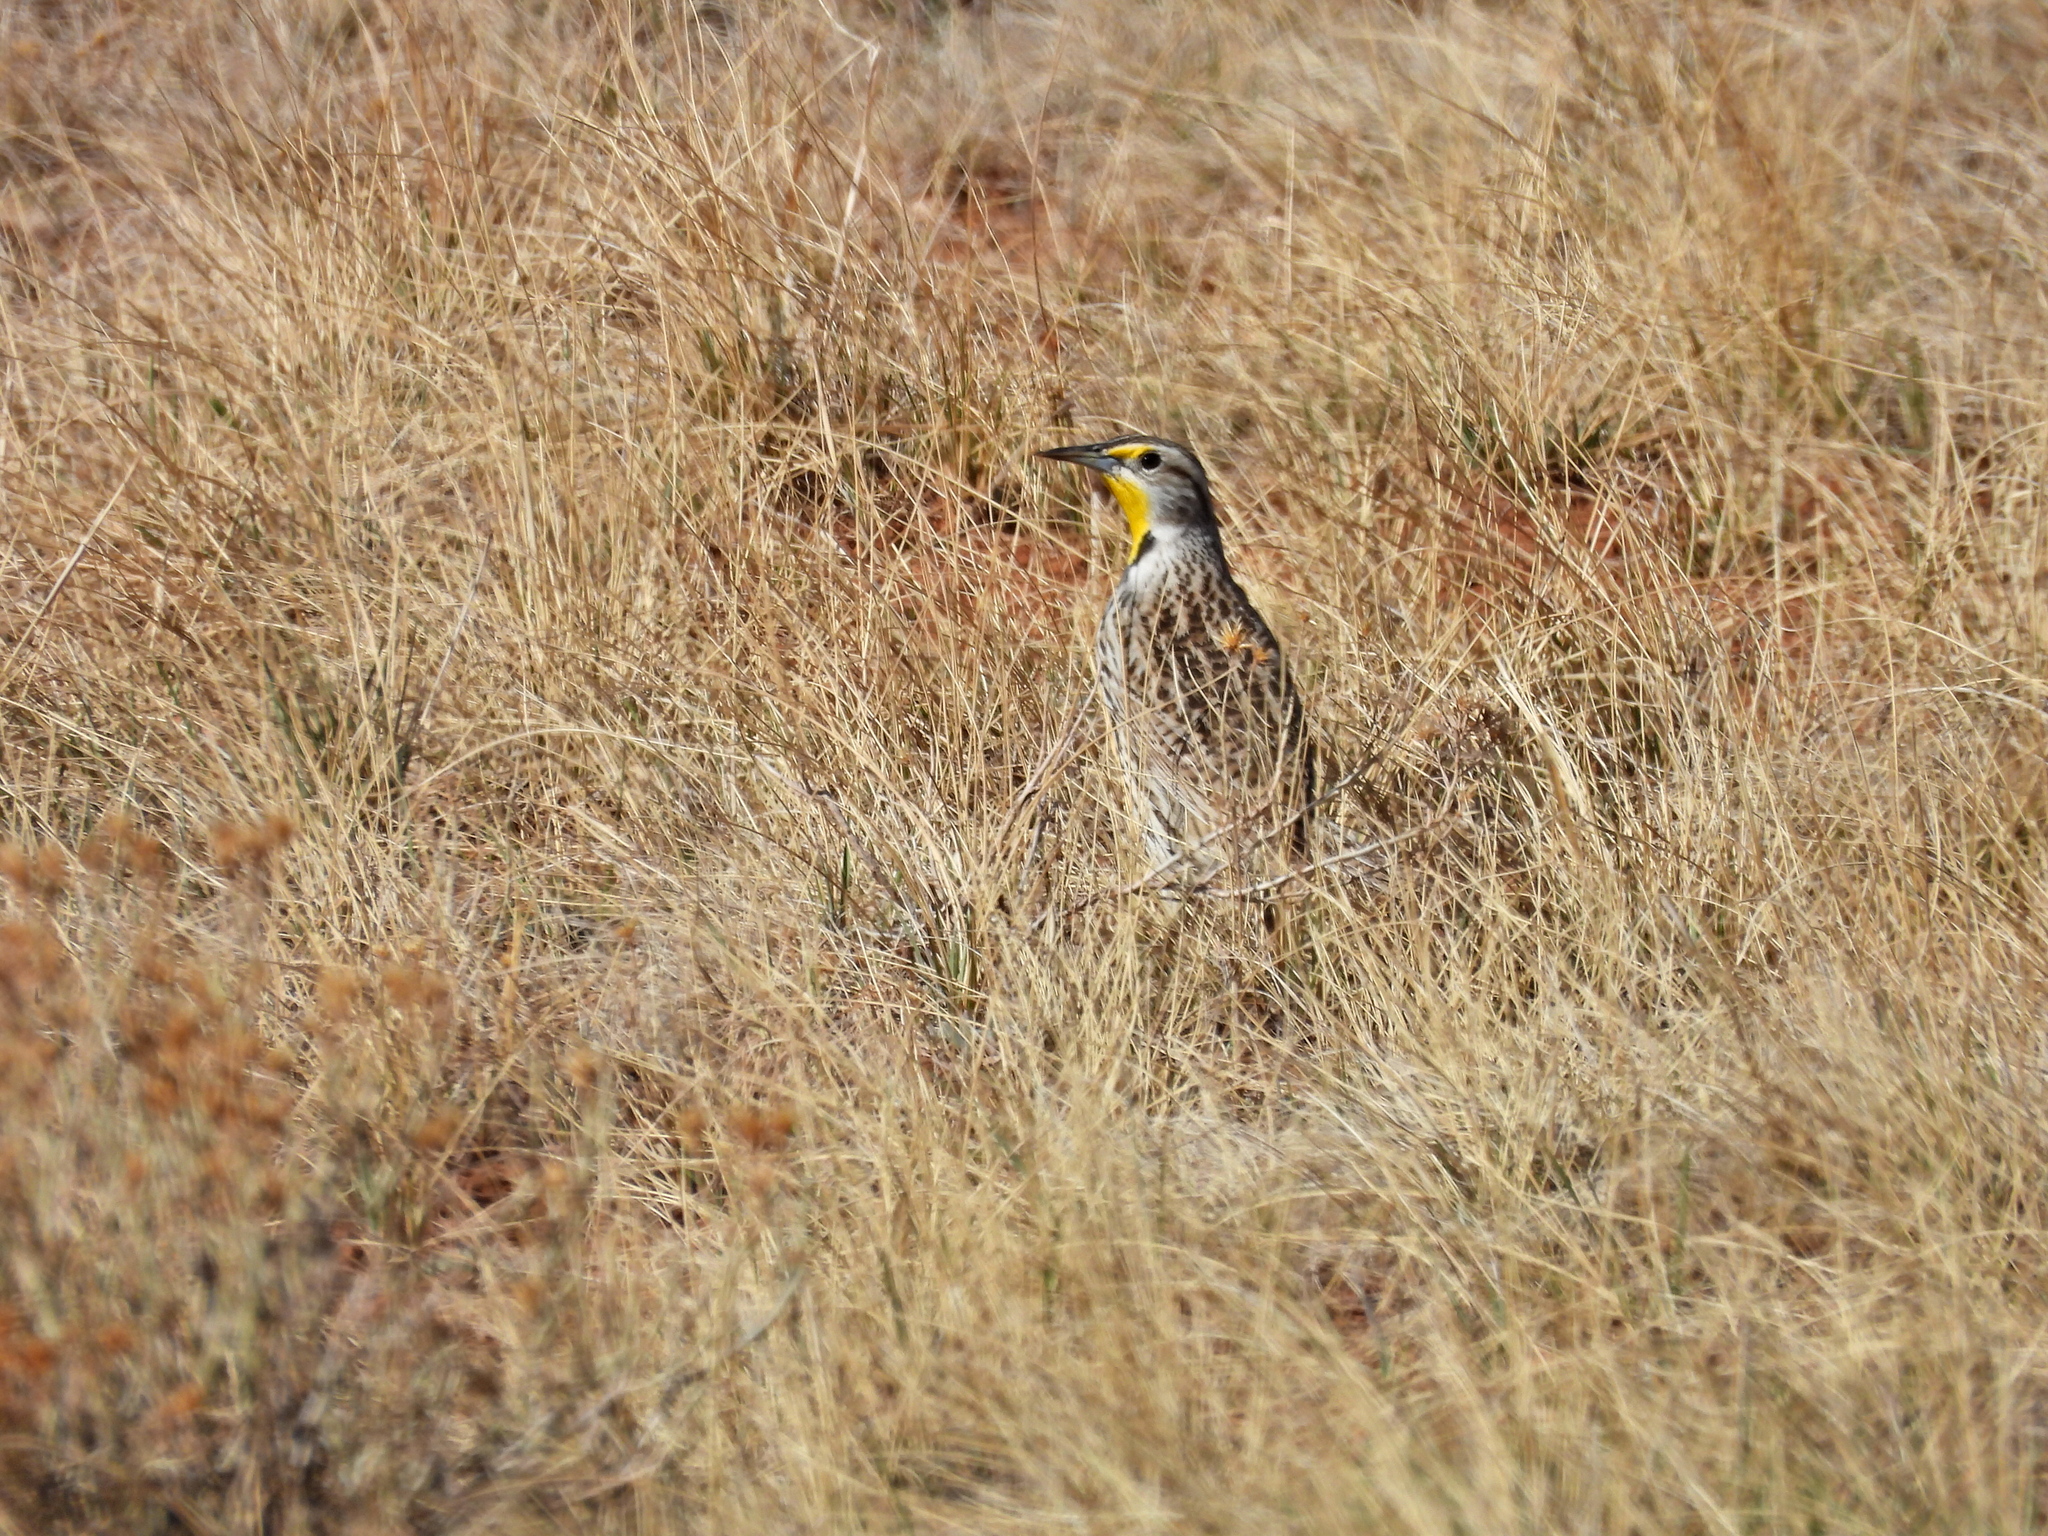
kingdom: Animalia
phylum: Chordata
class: Aves
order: Passeriformes
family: Icteridae
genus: Sturnella
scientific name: Sturnella neglecta
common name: Western meadowlark
